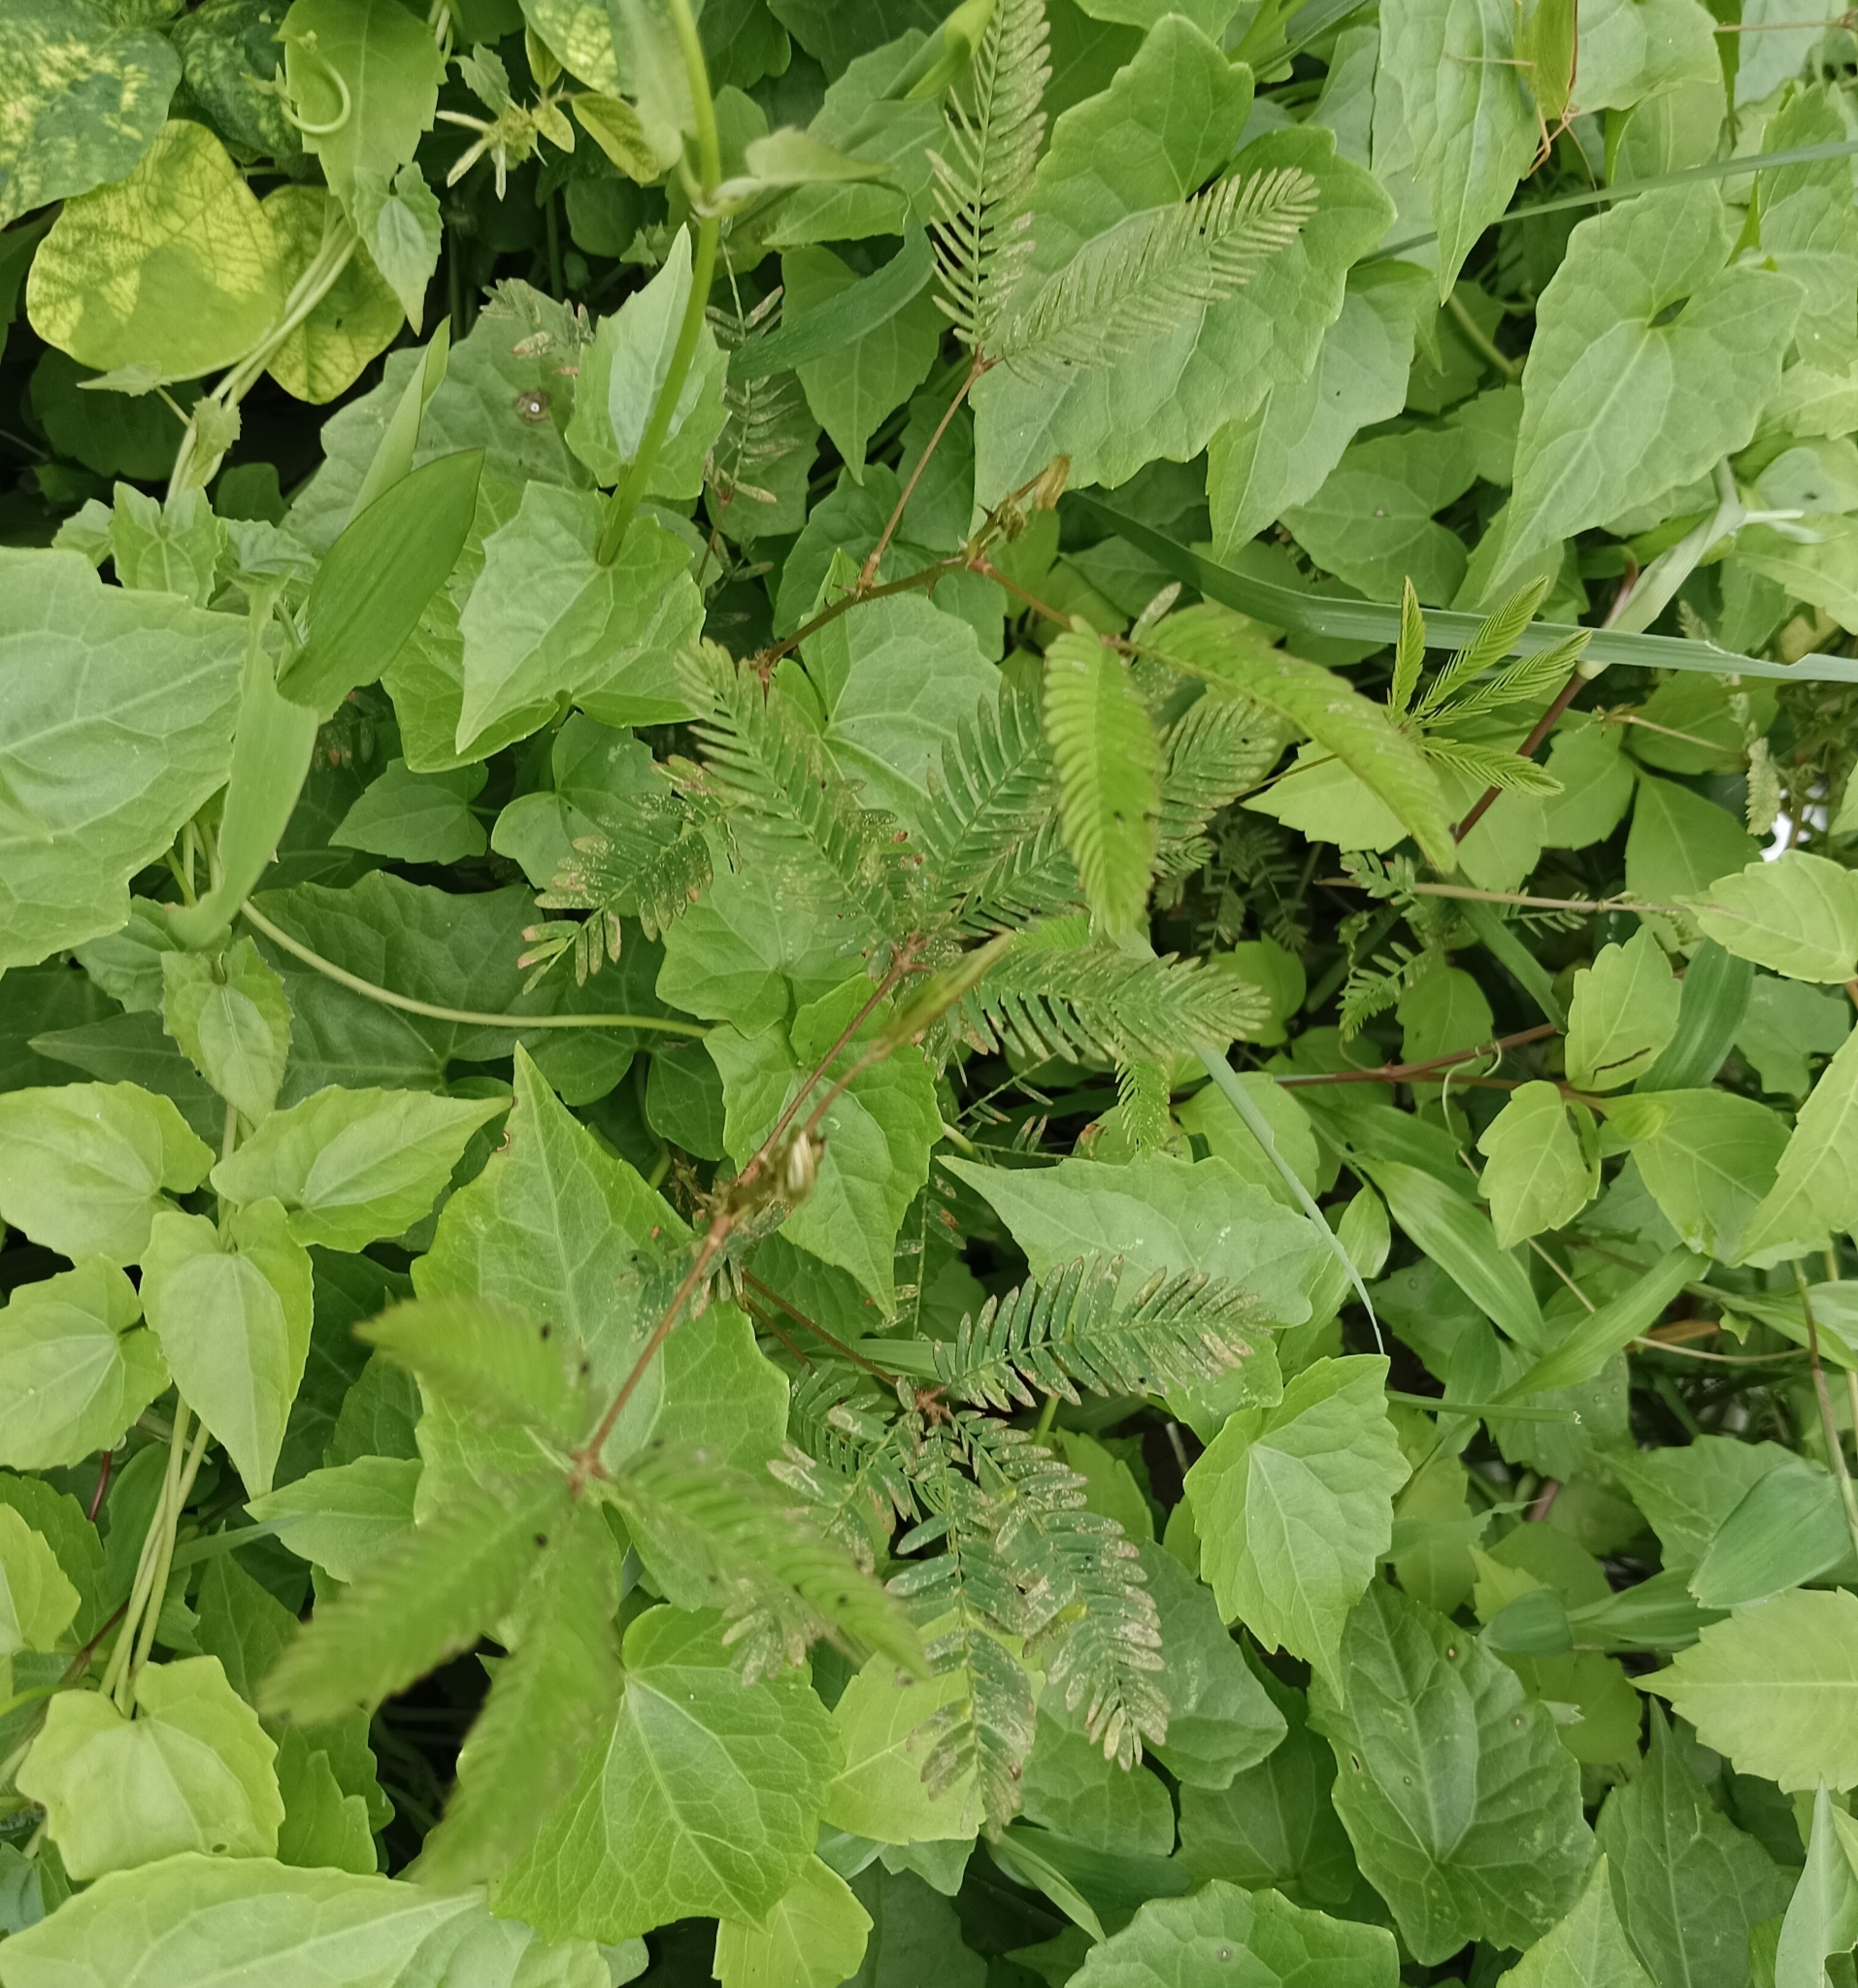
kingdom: Plantae
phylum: Tracheophyta
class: Magnoliopsida
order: Fabales
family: Fabaceae
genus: Mimosa
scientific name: Mimosa pudica
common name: Sensitive plant
